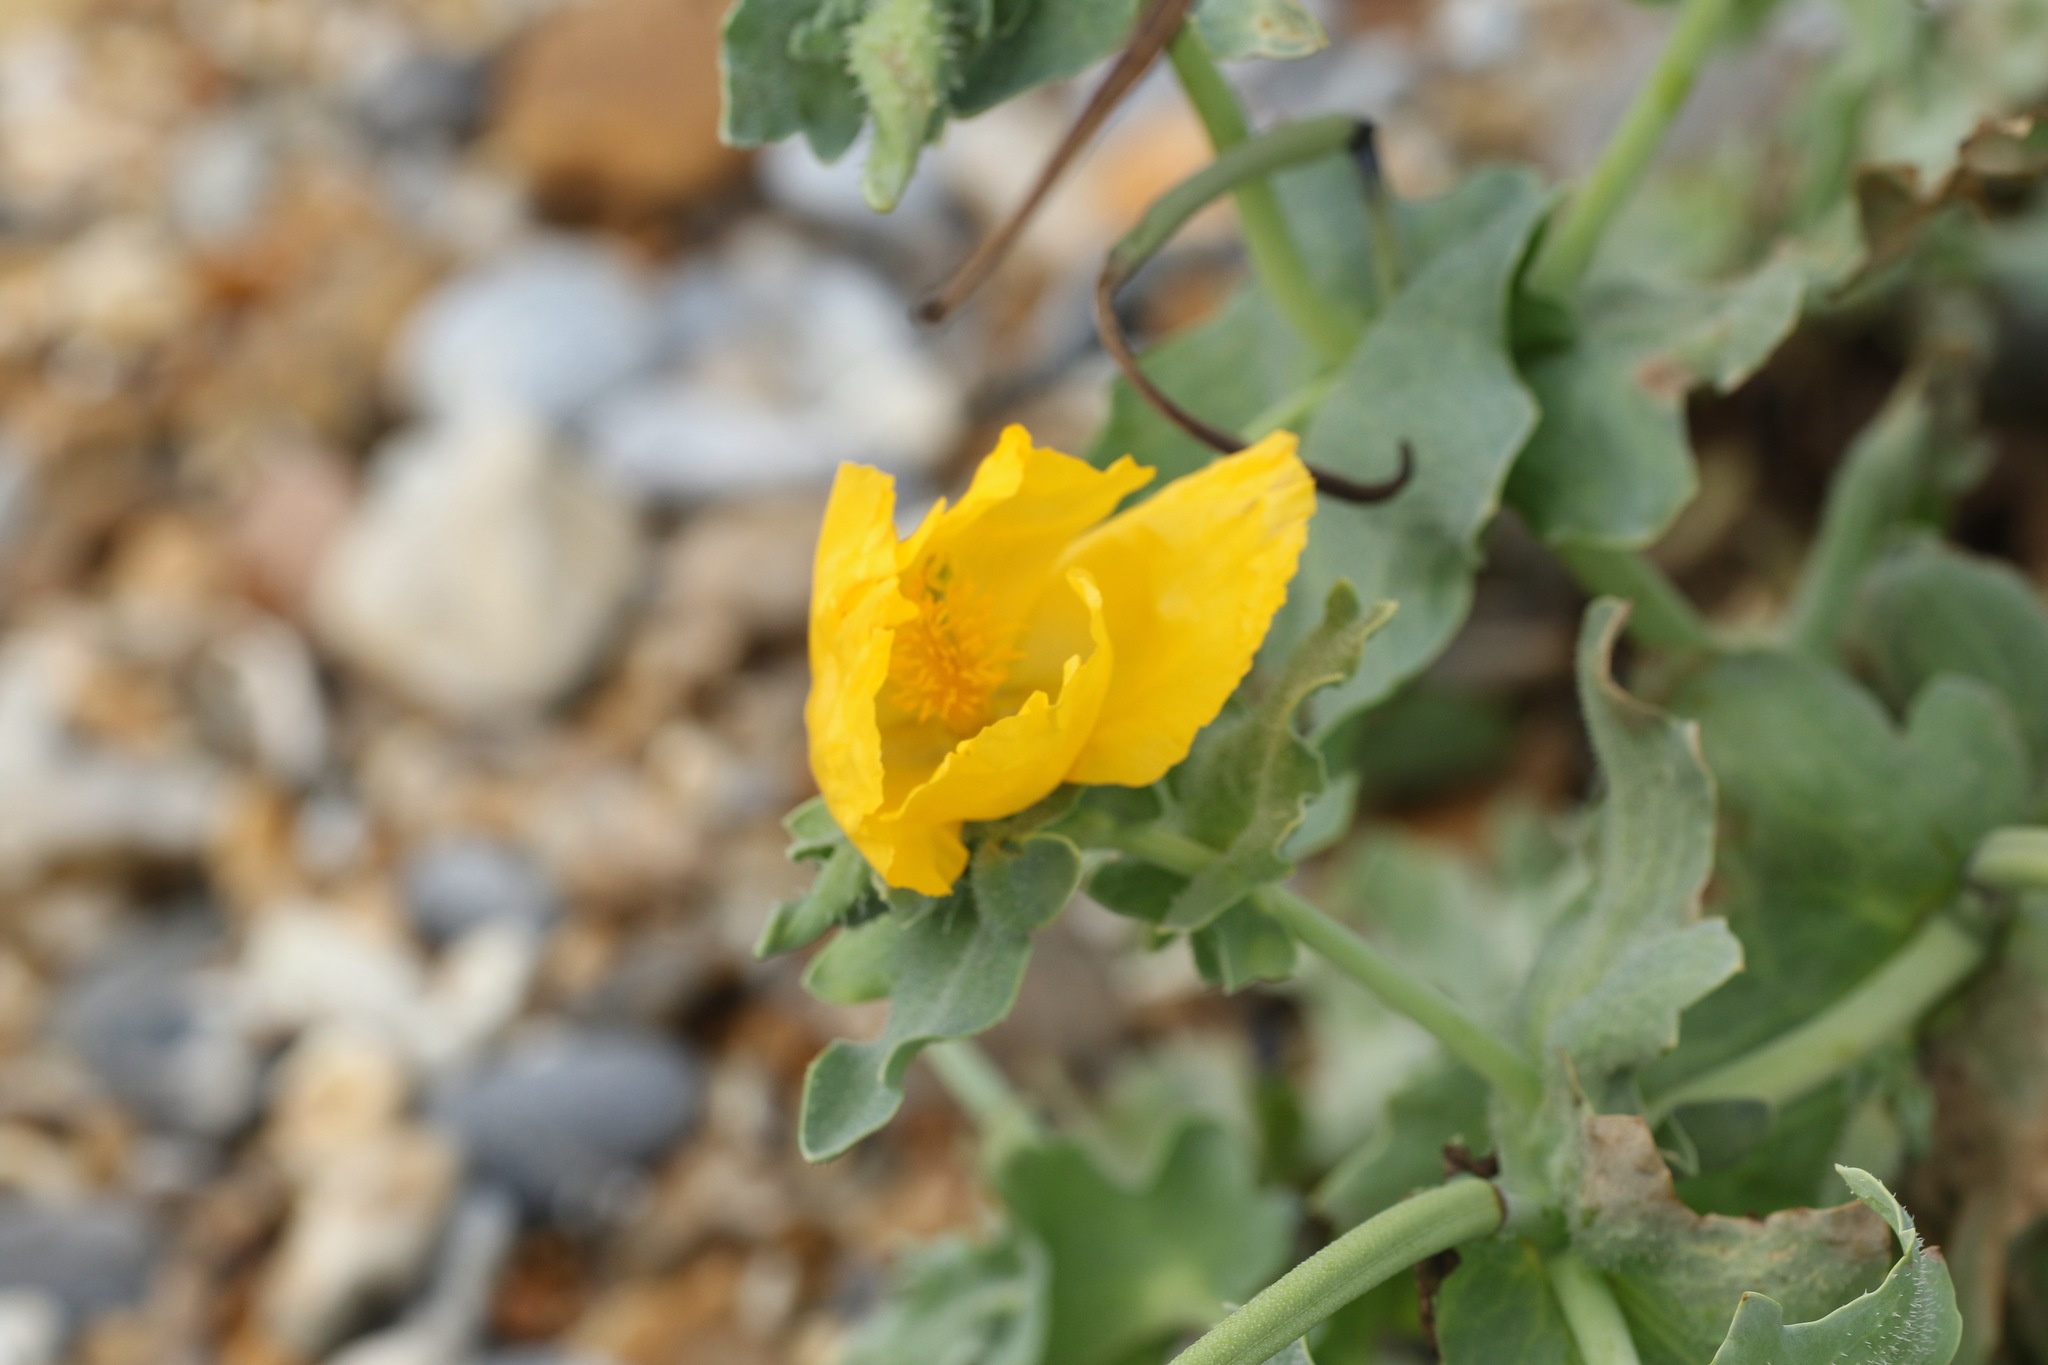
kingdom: Plantae
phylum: Tracheophyta
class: Magnoliopsida
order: Ranunculales
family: Papaveraceae
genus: Glaucium
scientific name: Glaucium flavum
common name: Yellow horned-poppy
